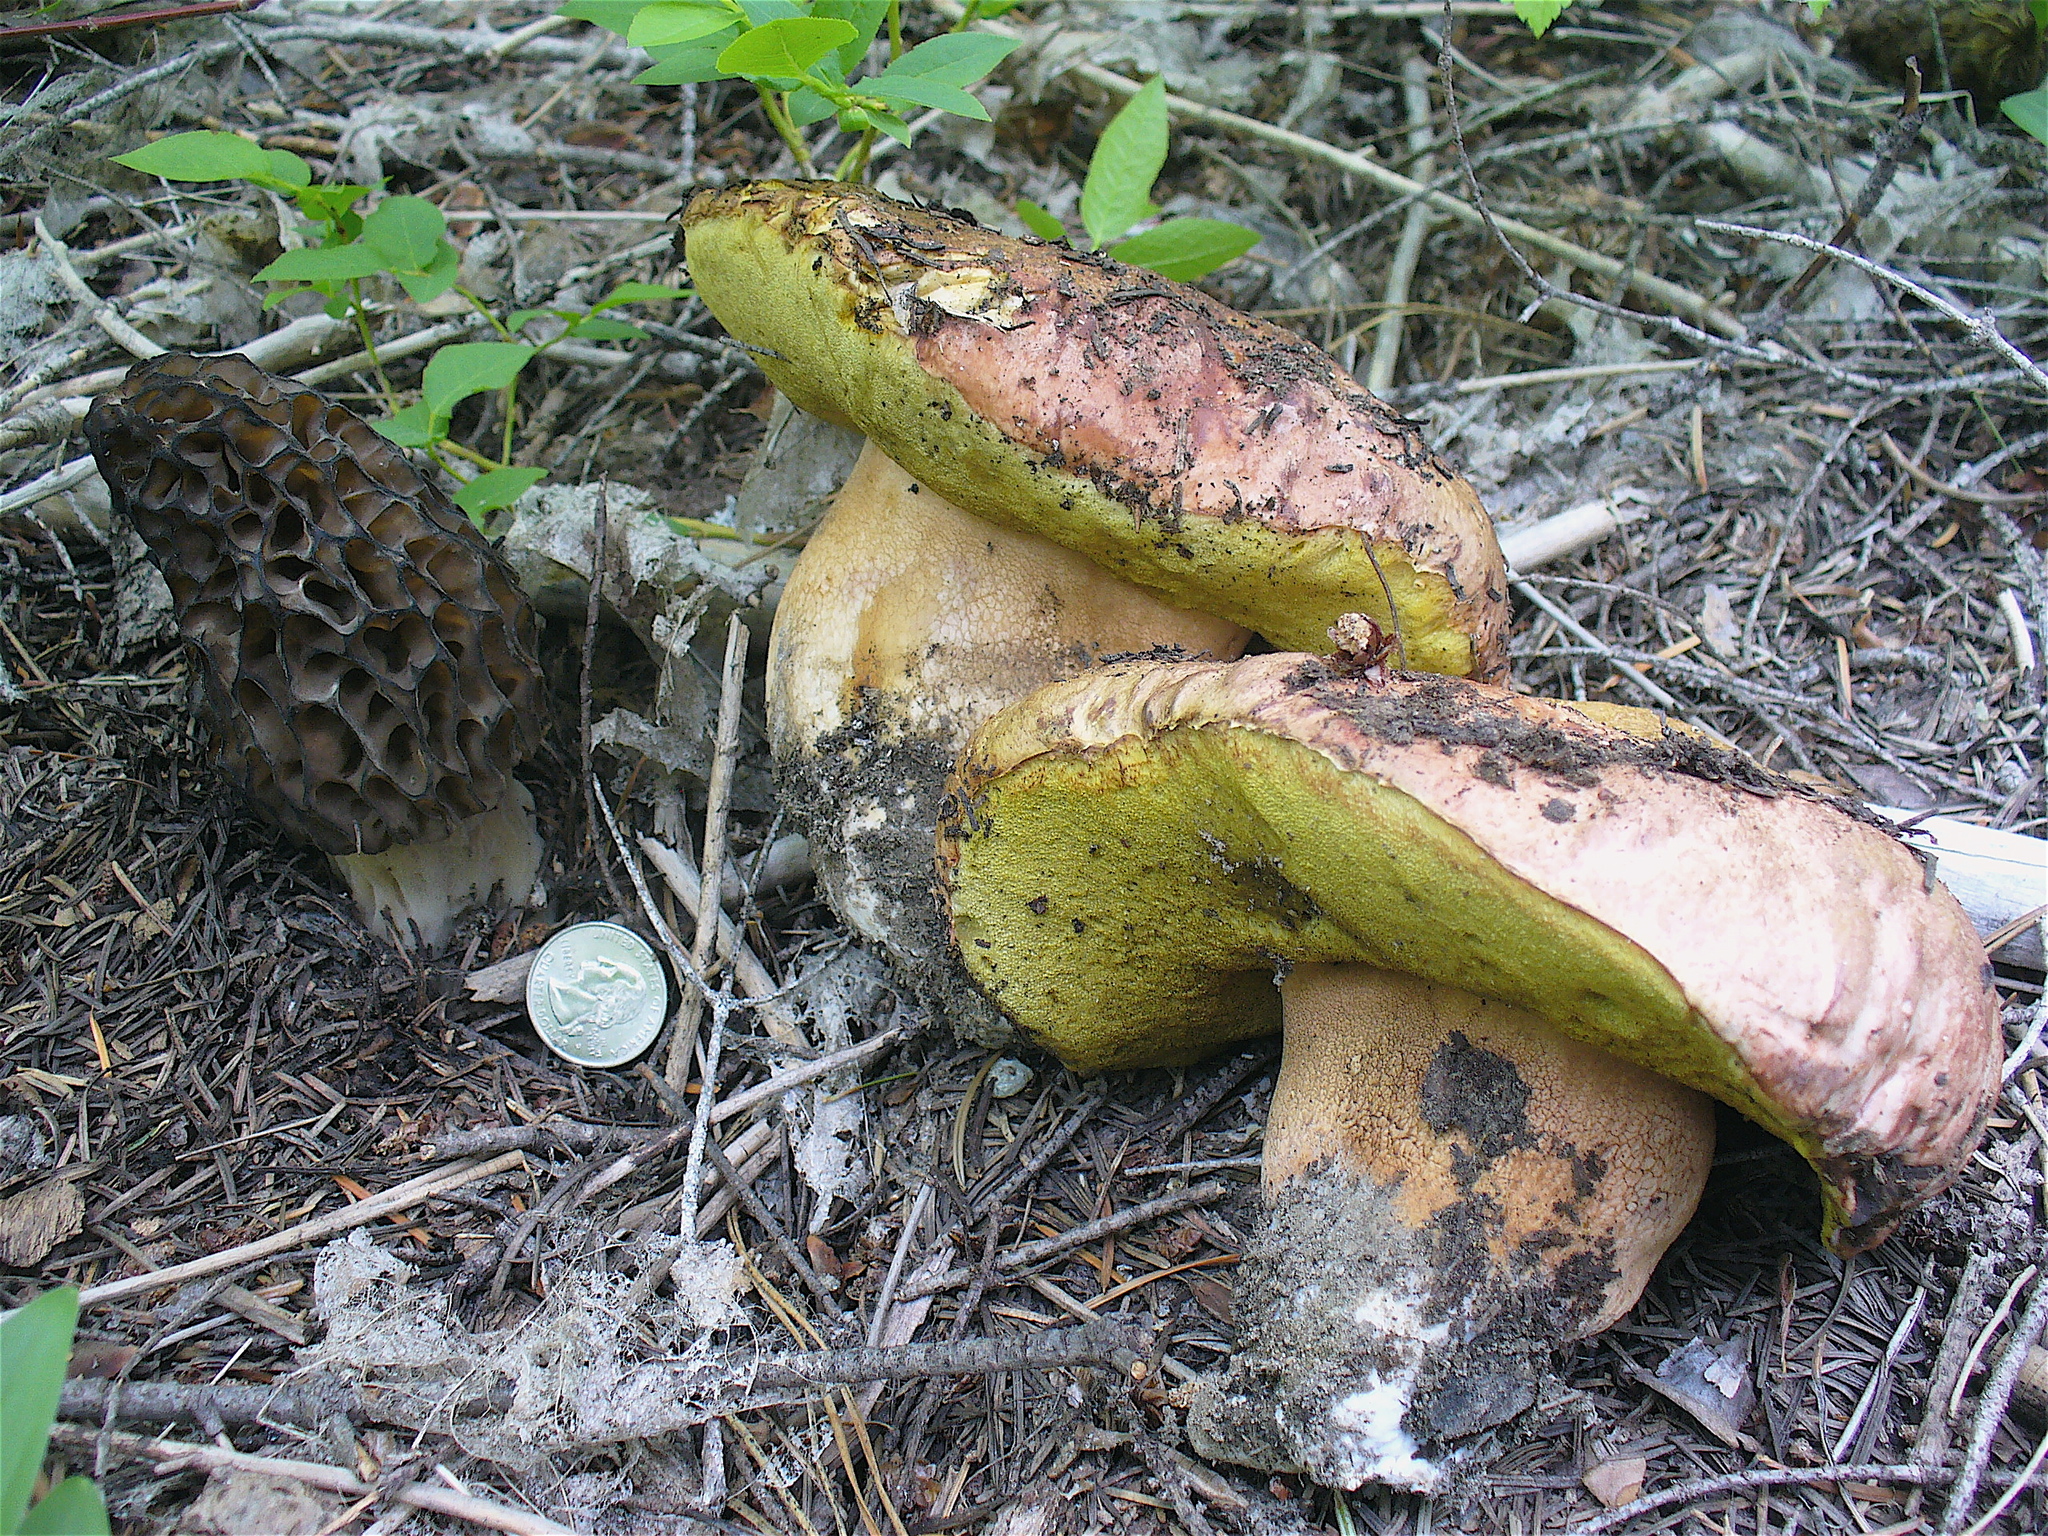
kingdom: Fungi
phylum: Basidiomycota
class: Agaricomycetes
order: Boletales
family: Boletaceae
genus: Boletus
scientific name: Boletus rex-veris
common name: Spring king
